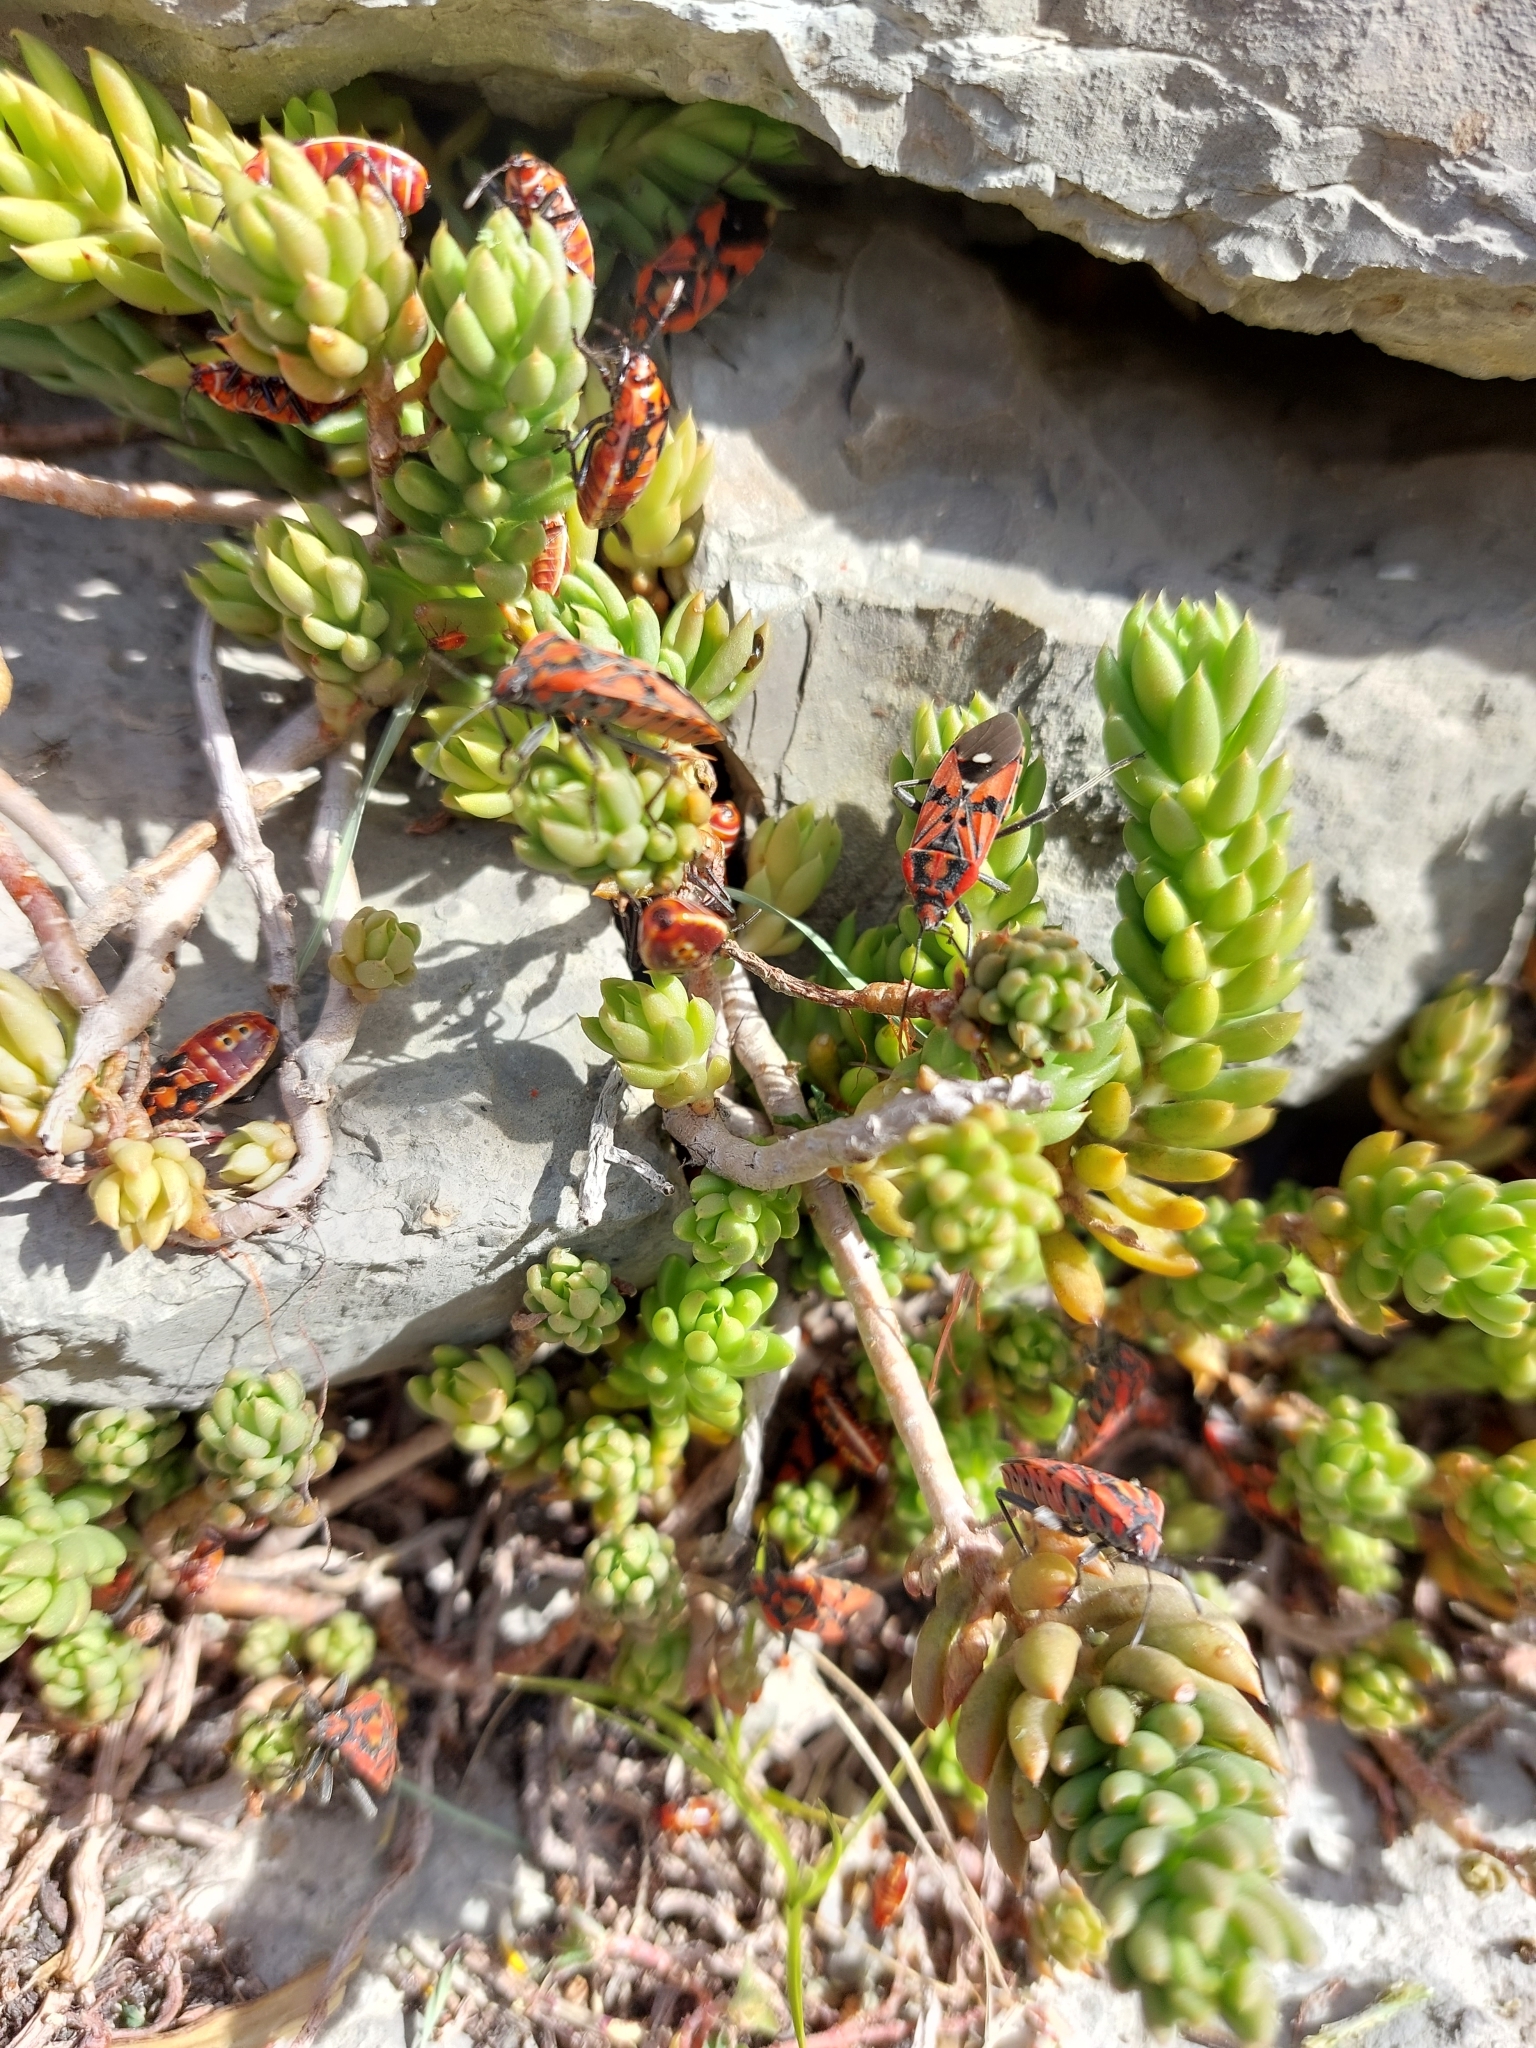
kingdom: Animalia
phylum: Arthropoda
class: Insecta
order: Hemiptera
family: Lygaeidae
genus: Spilostethus
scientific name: Spilostethus pandurus
